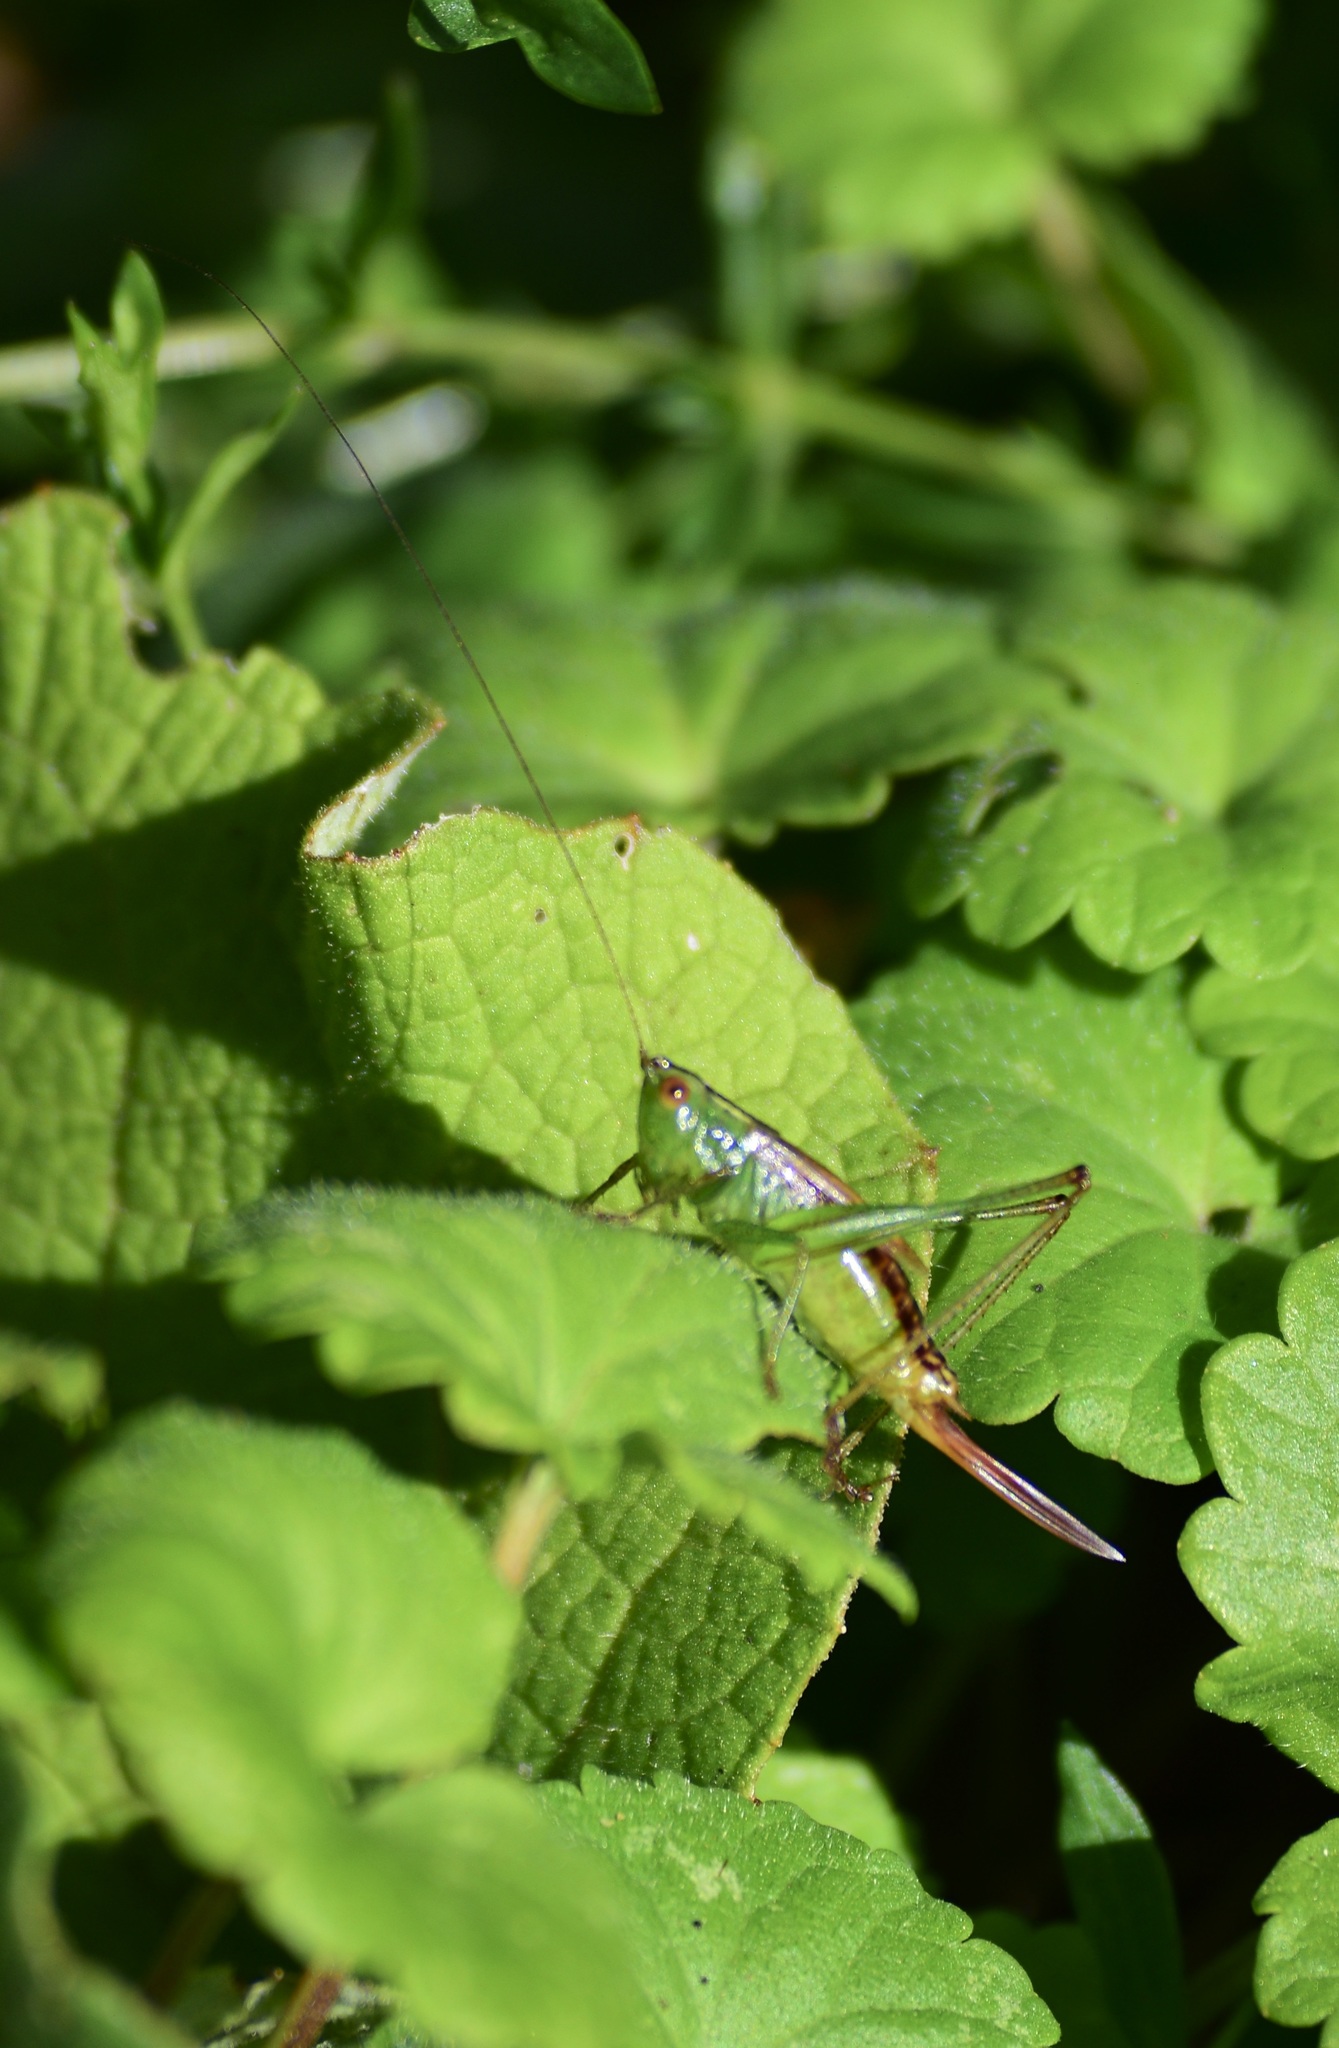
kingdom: Animalia
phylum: Arthropoda
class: Insecta
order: Orthoptera
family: Tettigoniidae
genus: Conocephalus
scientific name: Conocephalus brevipennis
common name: Short-winged meadow katydid
